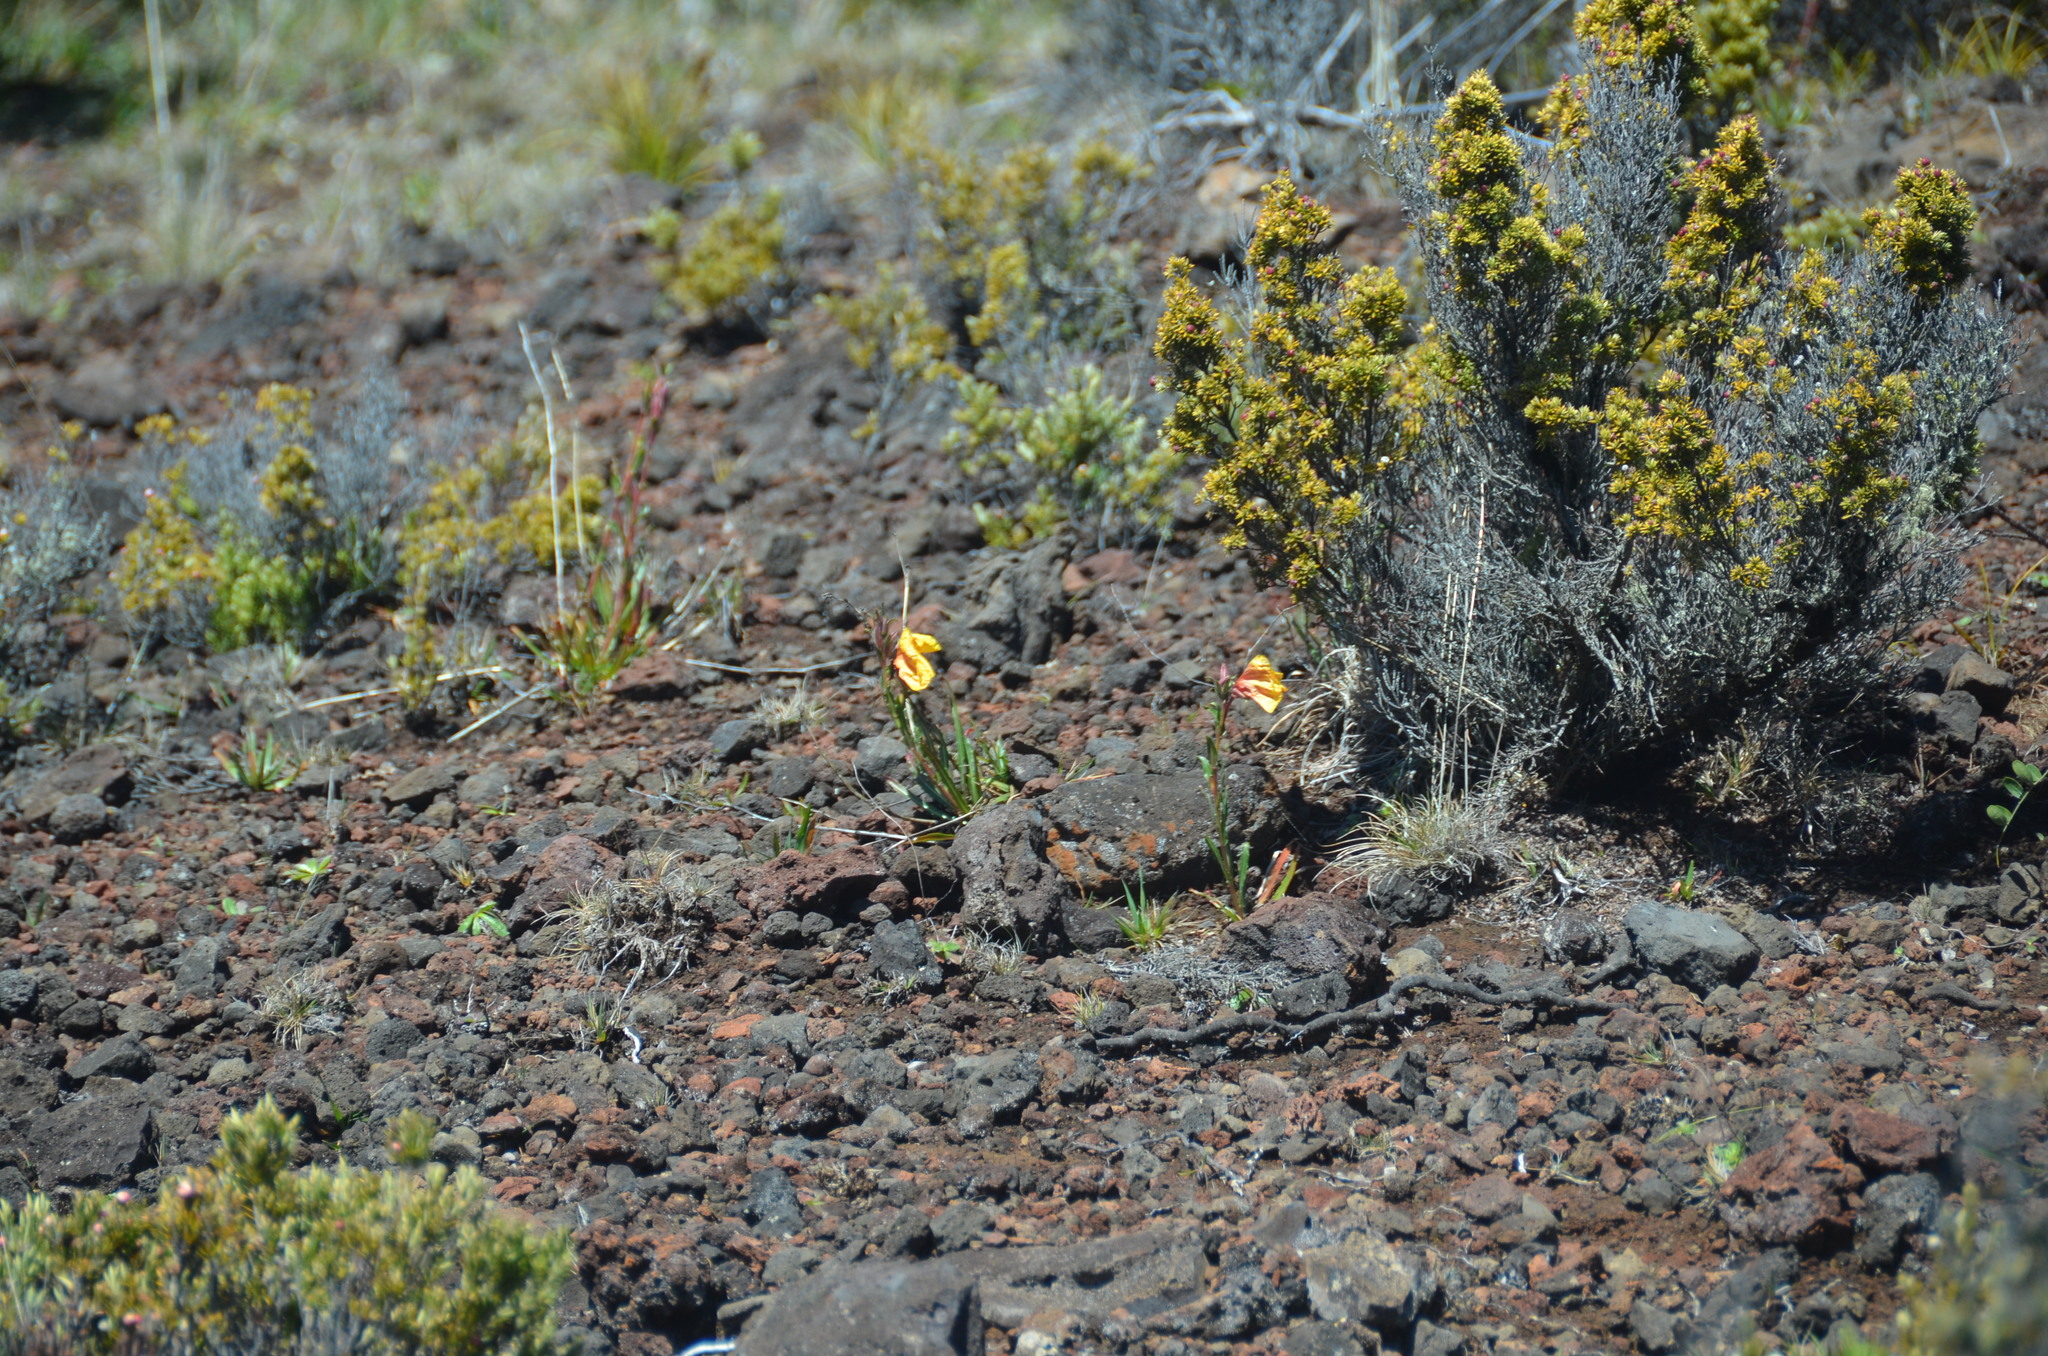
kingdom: Plantae
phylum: Tracheophyta
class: Magnoliopsida
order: Myrtales
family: Onagraceae
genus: Oenothera
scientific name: Oenothera stricta
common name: Fragrant evening-primrose
